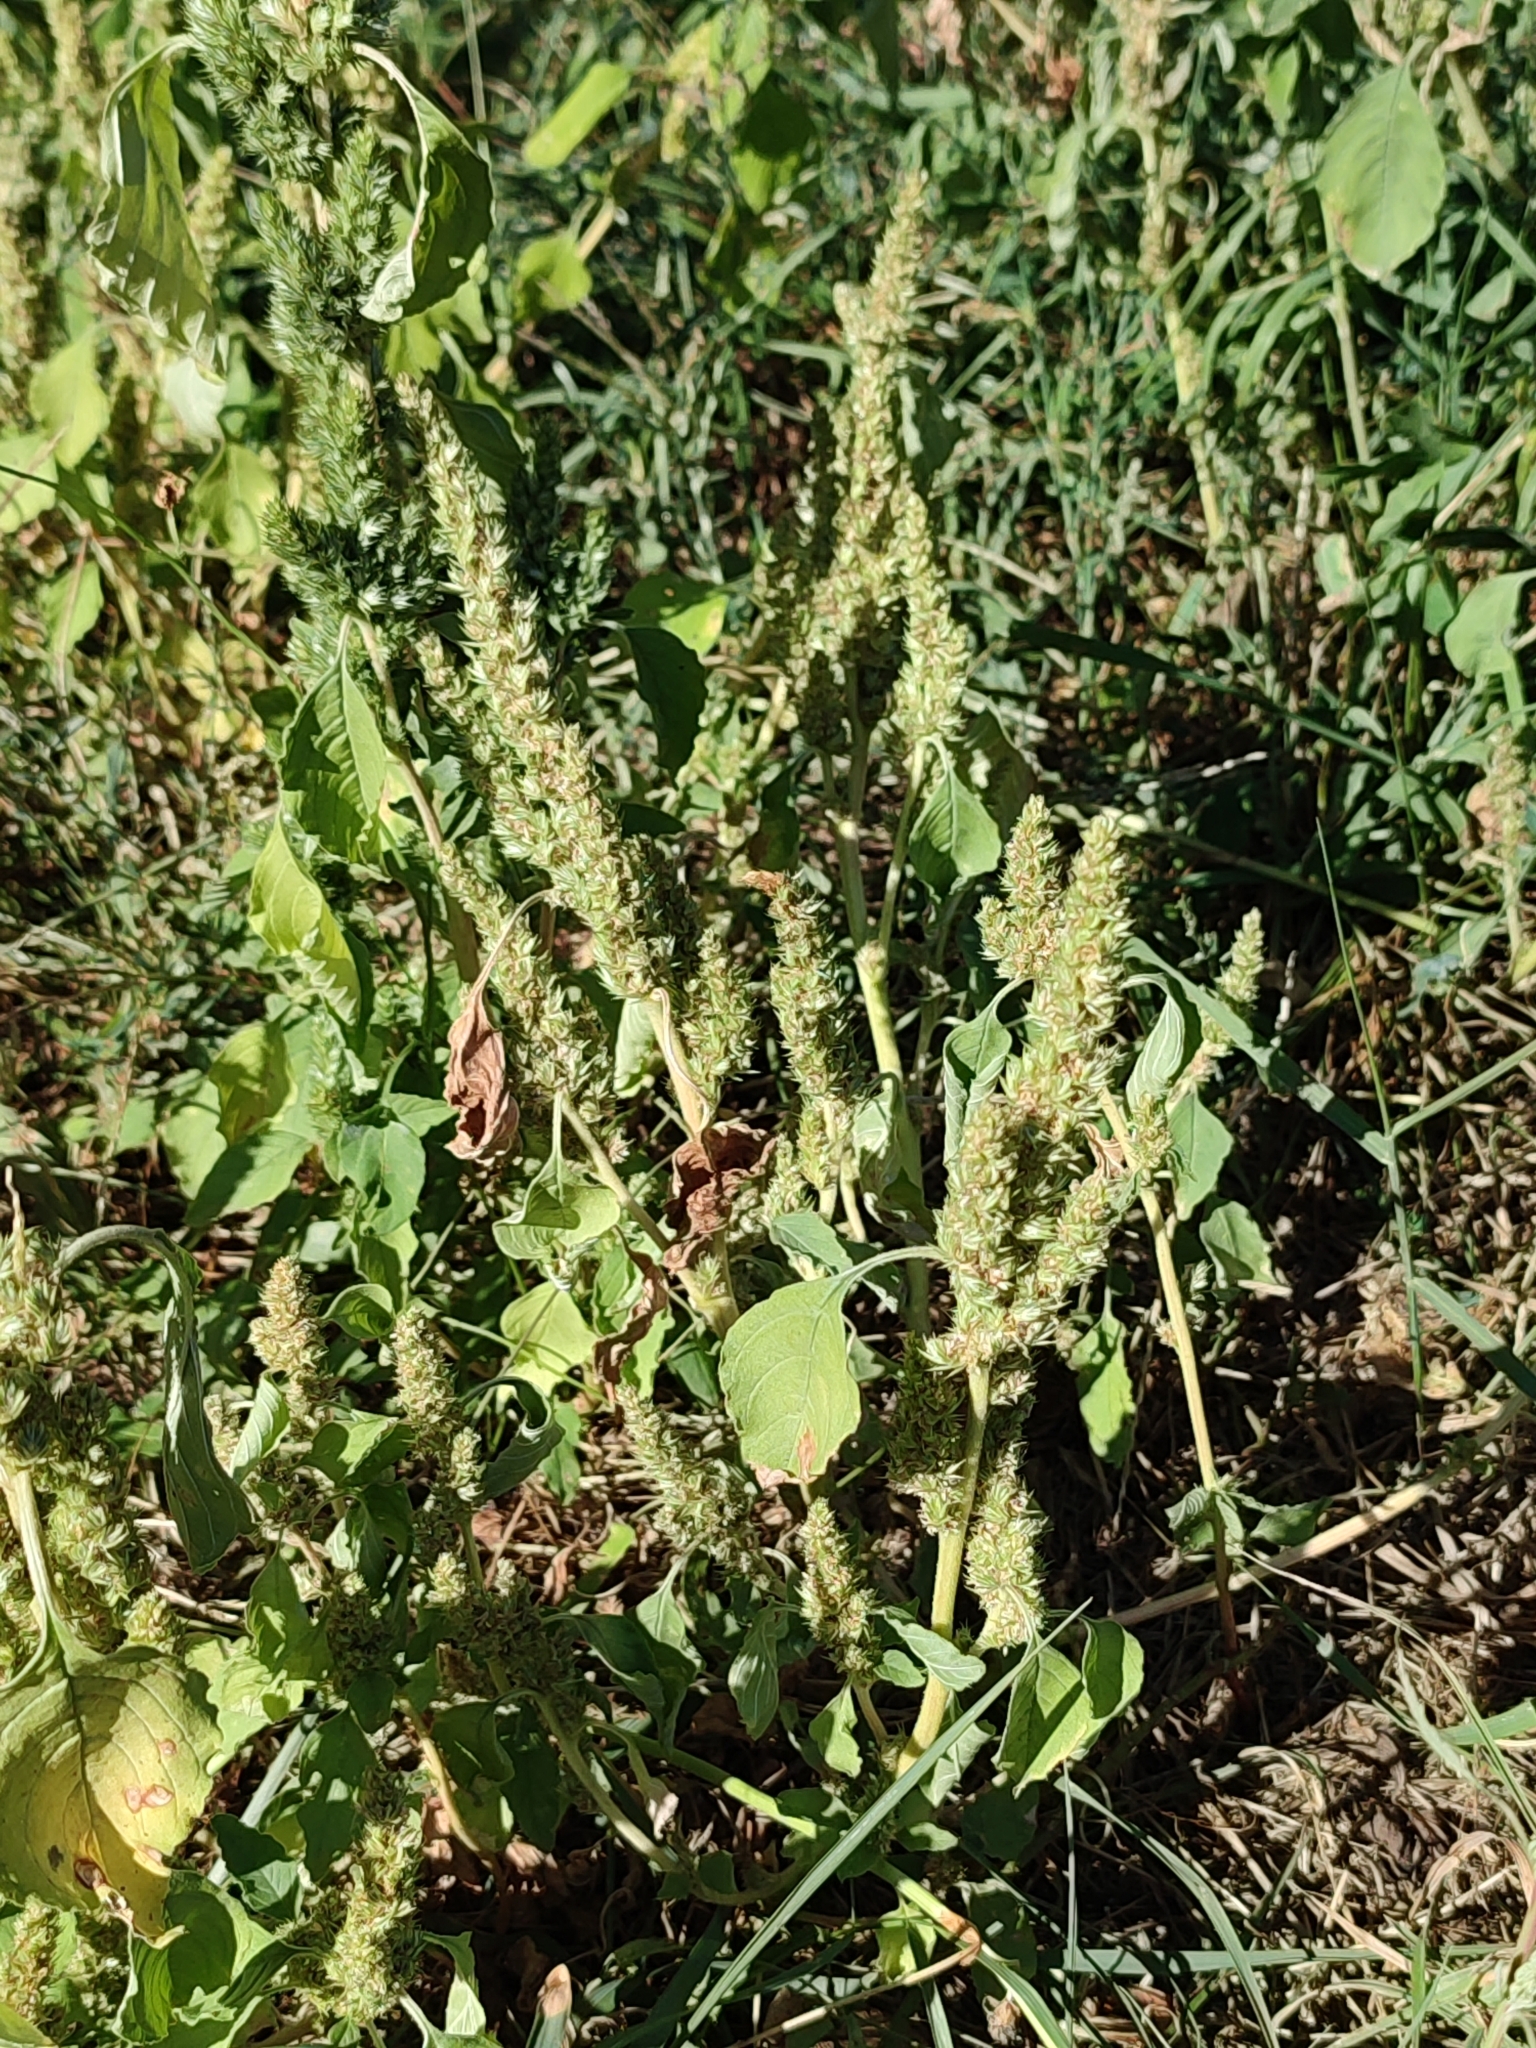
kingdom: Plantae
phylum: Tracheophyta
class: Magnoliopsida
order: Caryophyllales
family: Amaranthaceae
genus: Amaranthus
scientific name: Amaranthus retroflexus
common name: Redroot amaranth
